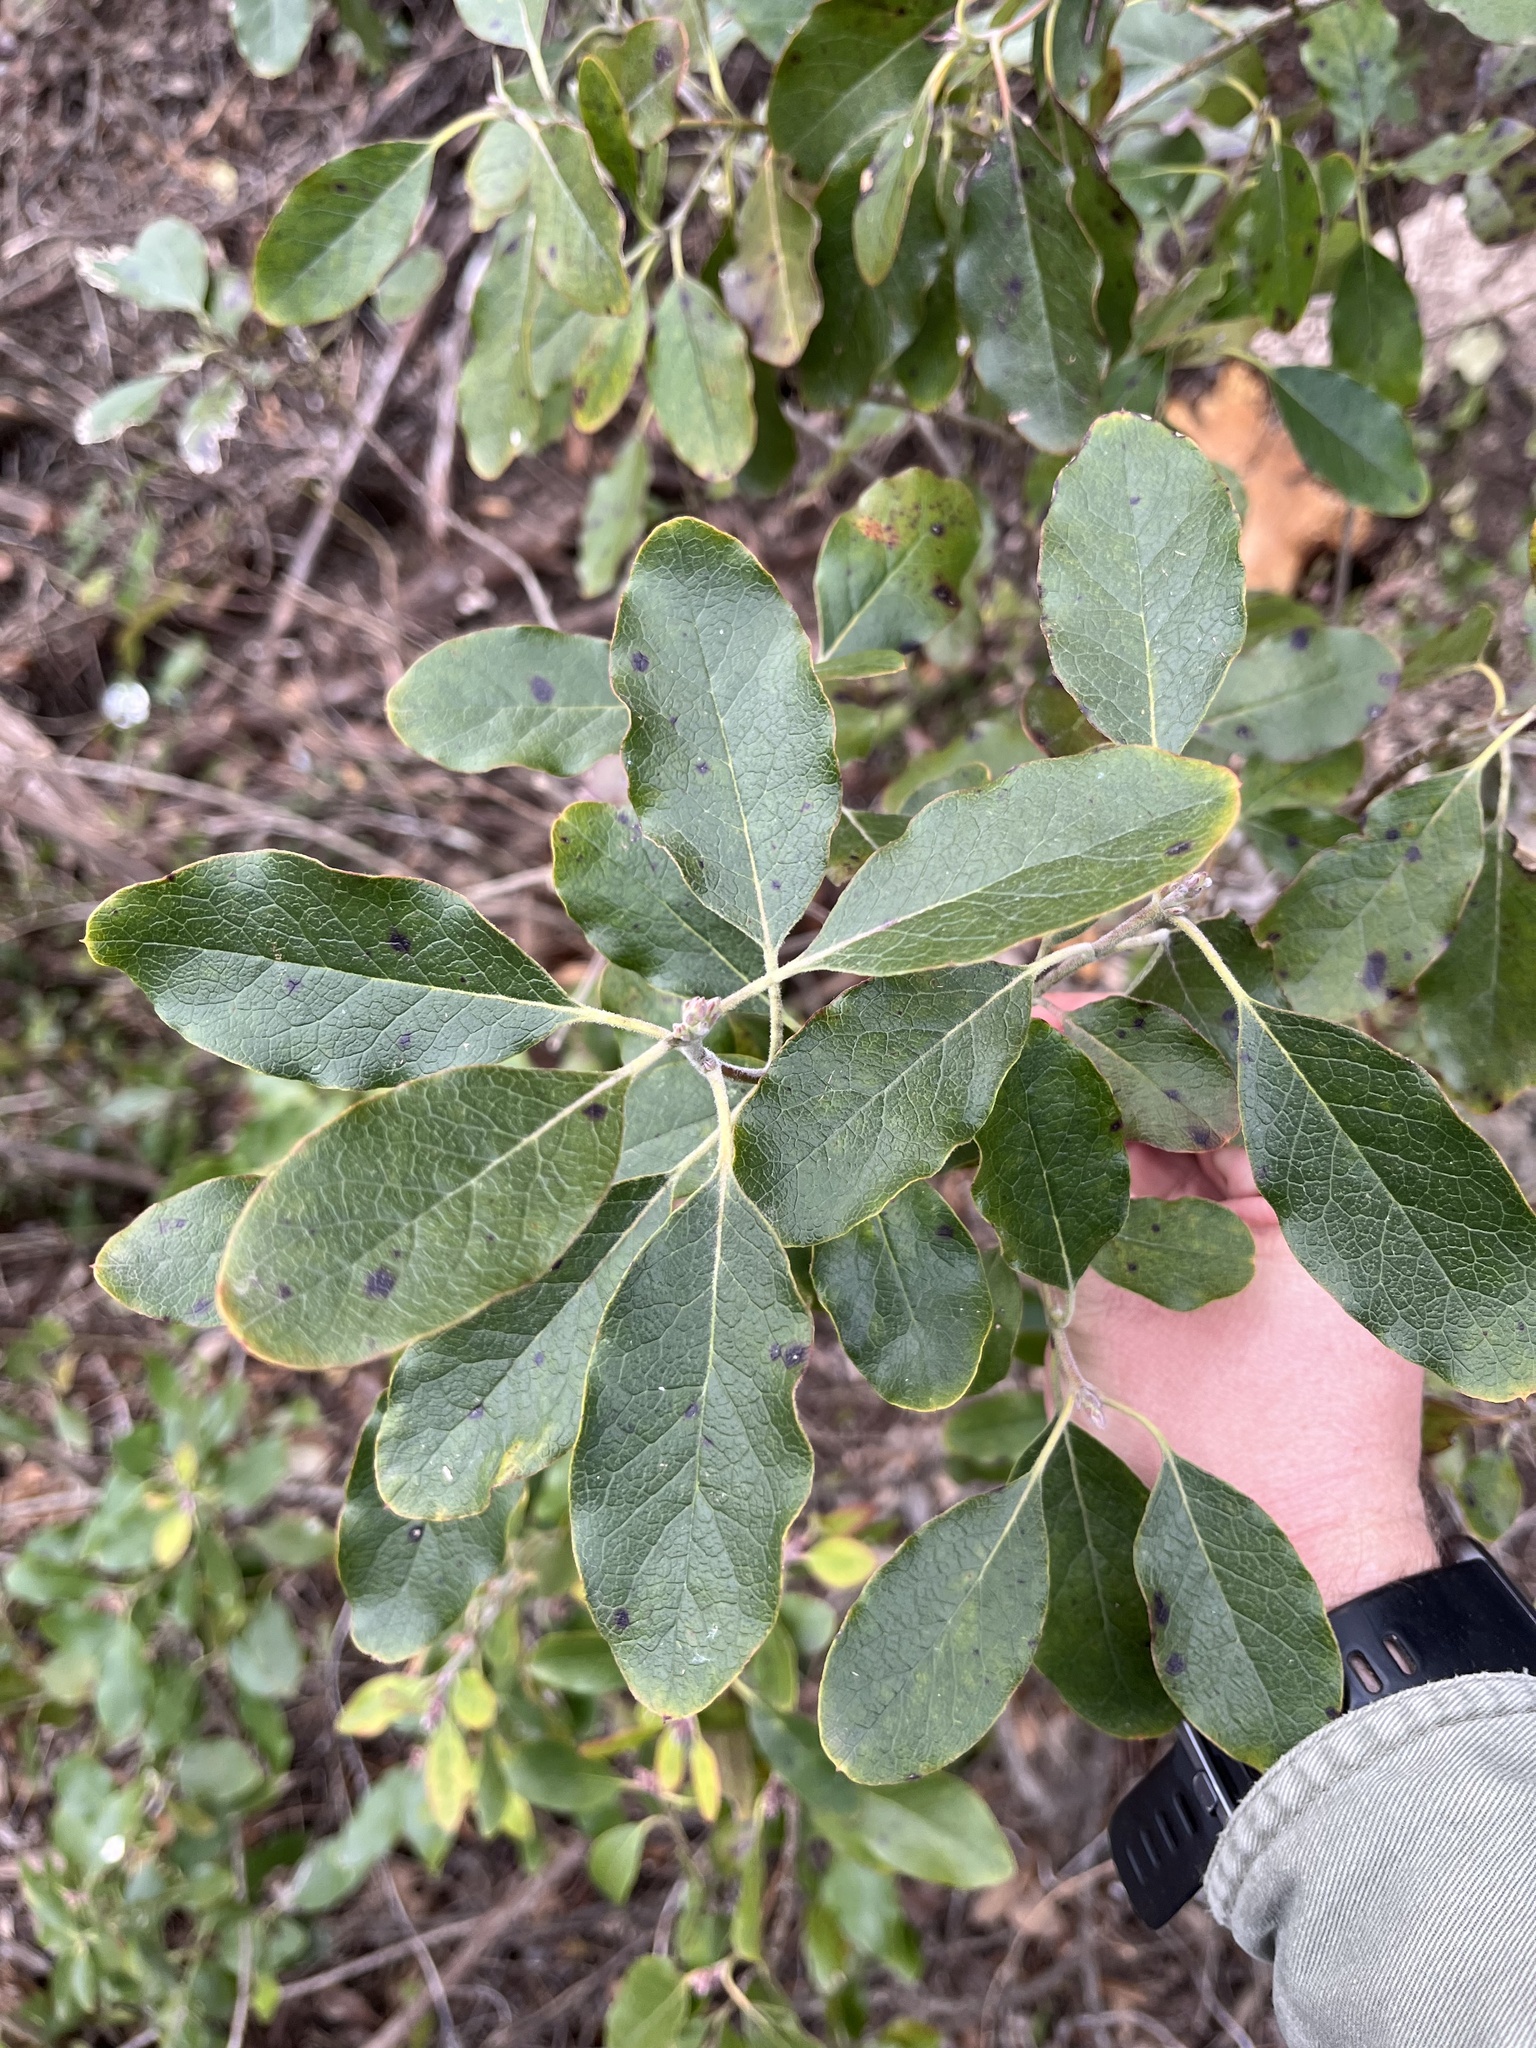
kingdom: Plantae
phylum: Tracheophyta
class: Magnoliopsida
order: Garryales
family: Garryaceae
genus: Garrya
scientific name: Garrya lindheimeri
